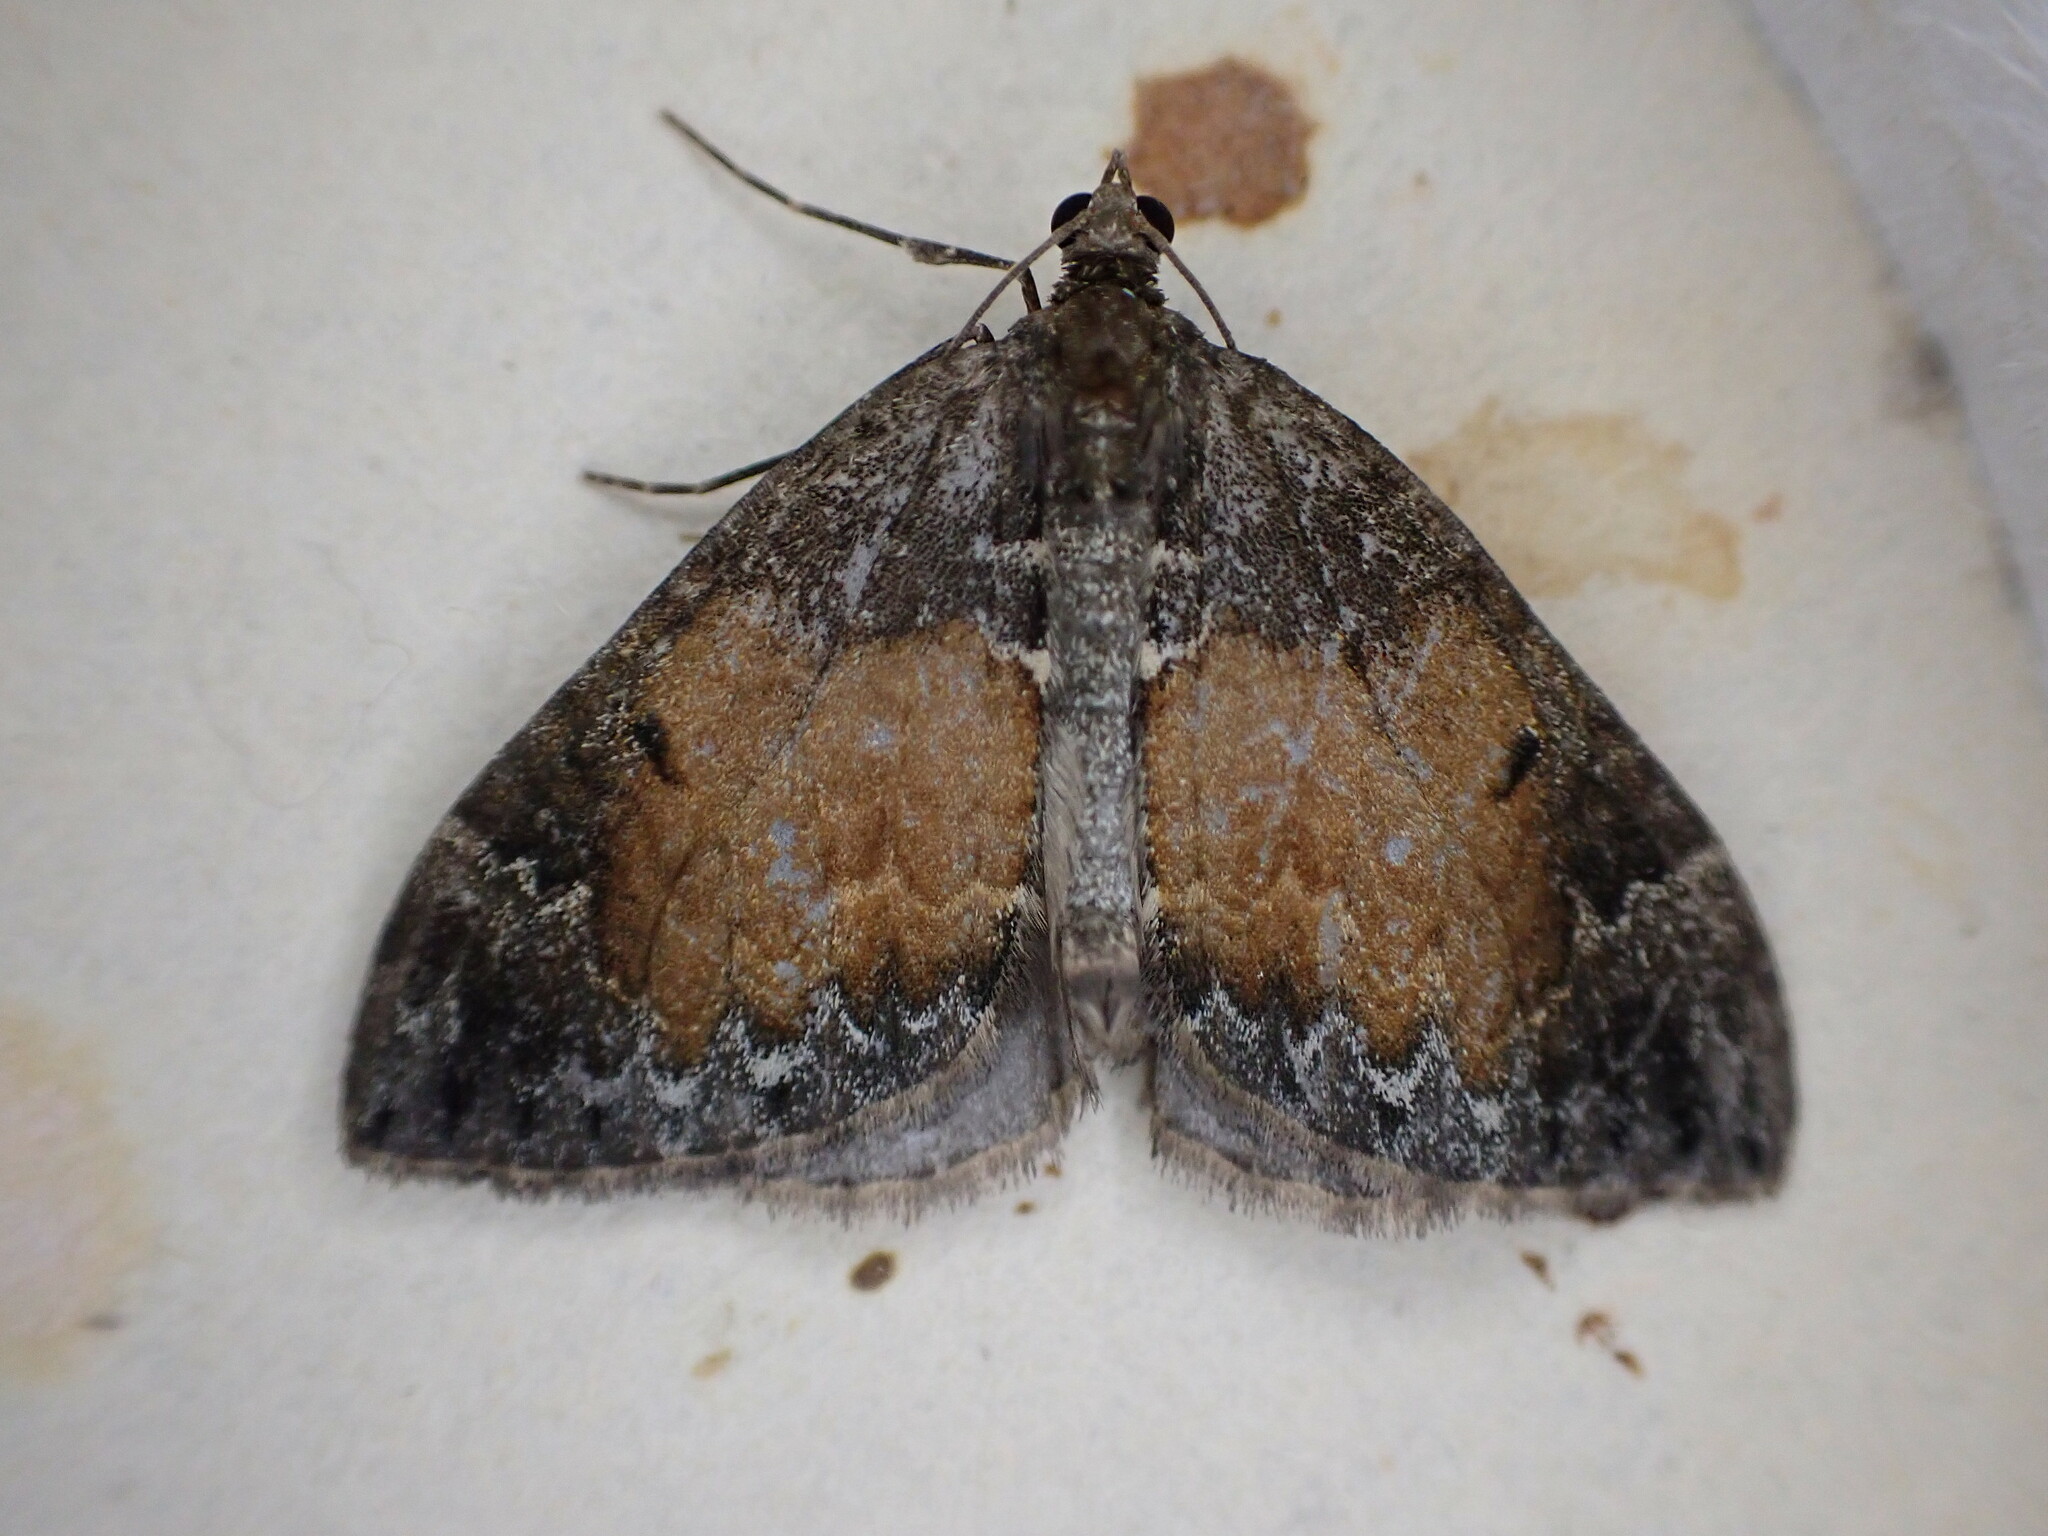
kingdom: Animalia
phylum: Arthropoda
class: Insecta
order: Lepidoptera
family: Geometridae
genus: Dysstroma
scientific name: Dysstroma truncata
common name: Common marbled carpet
